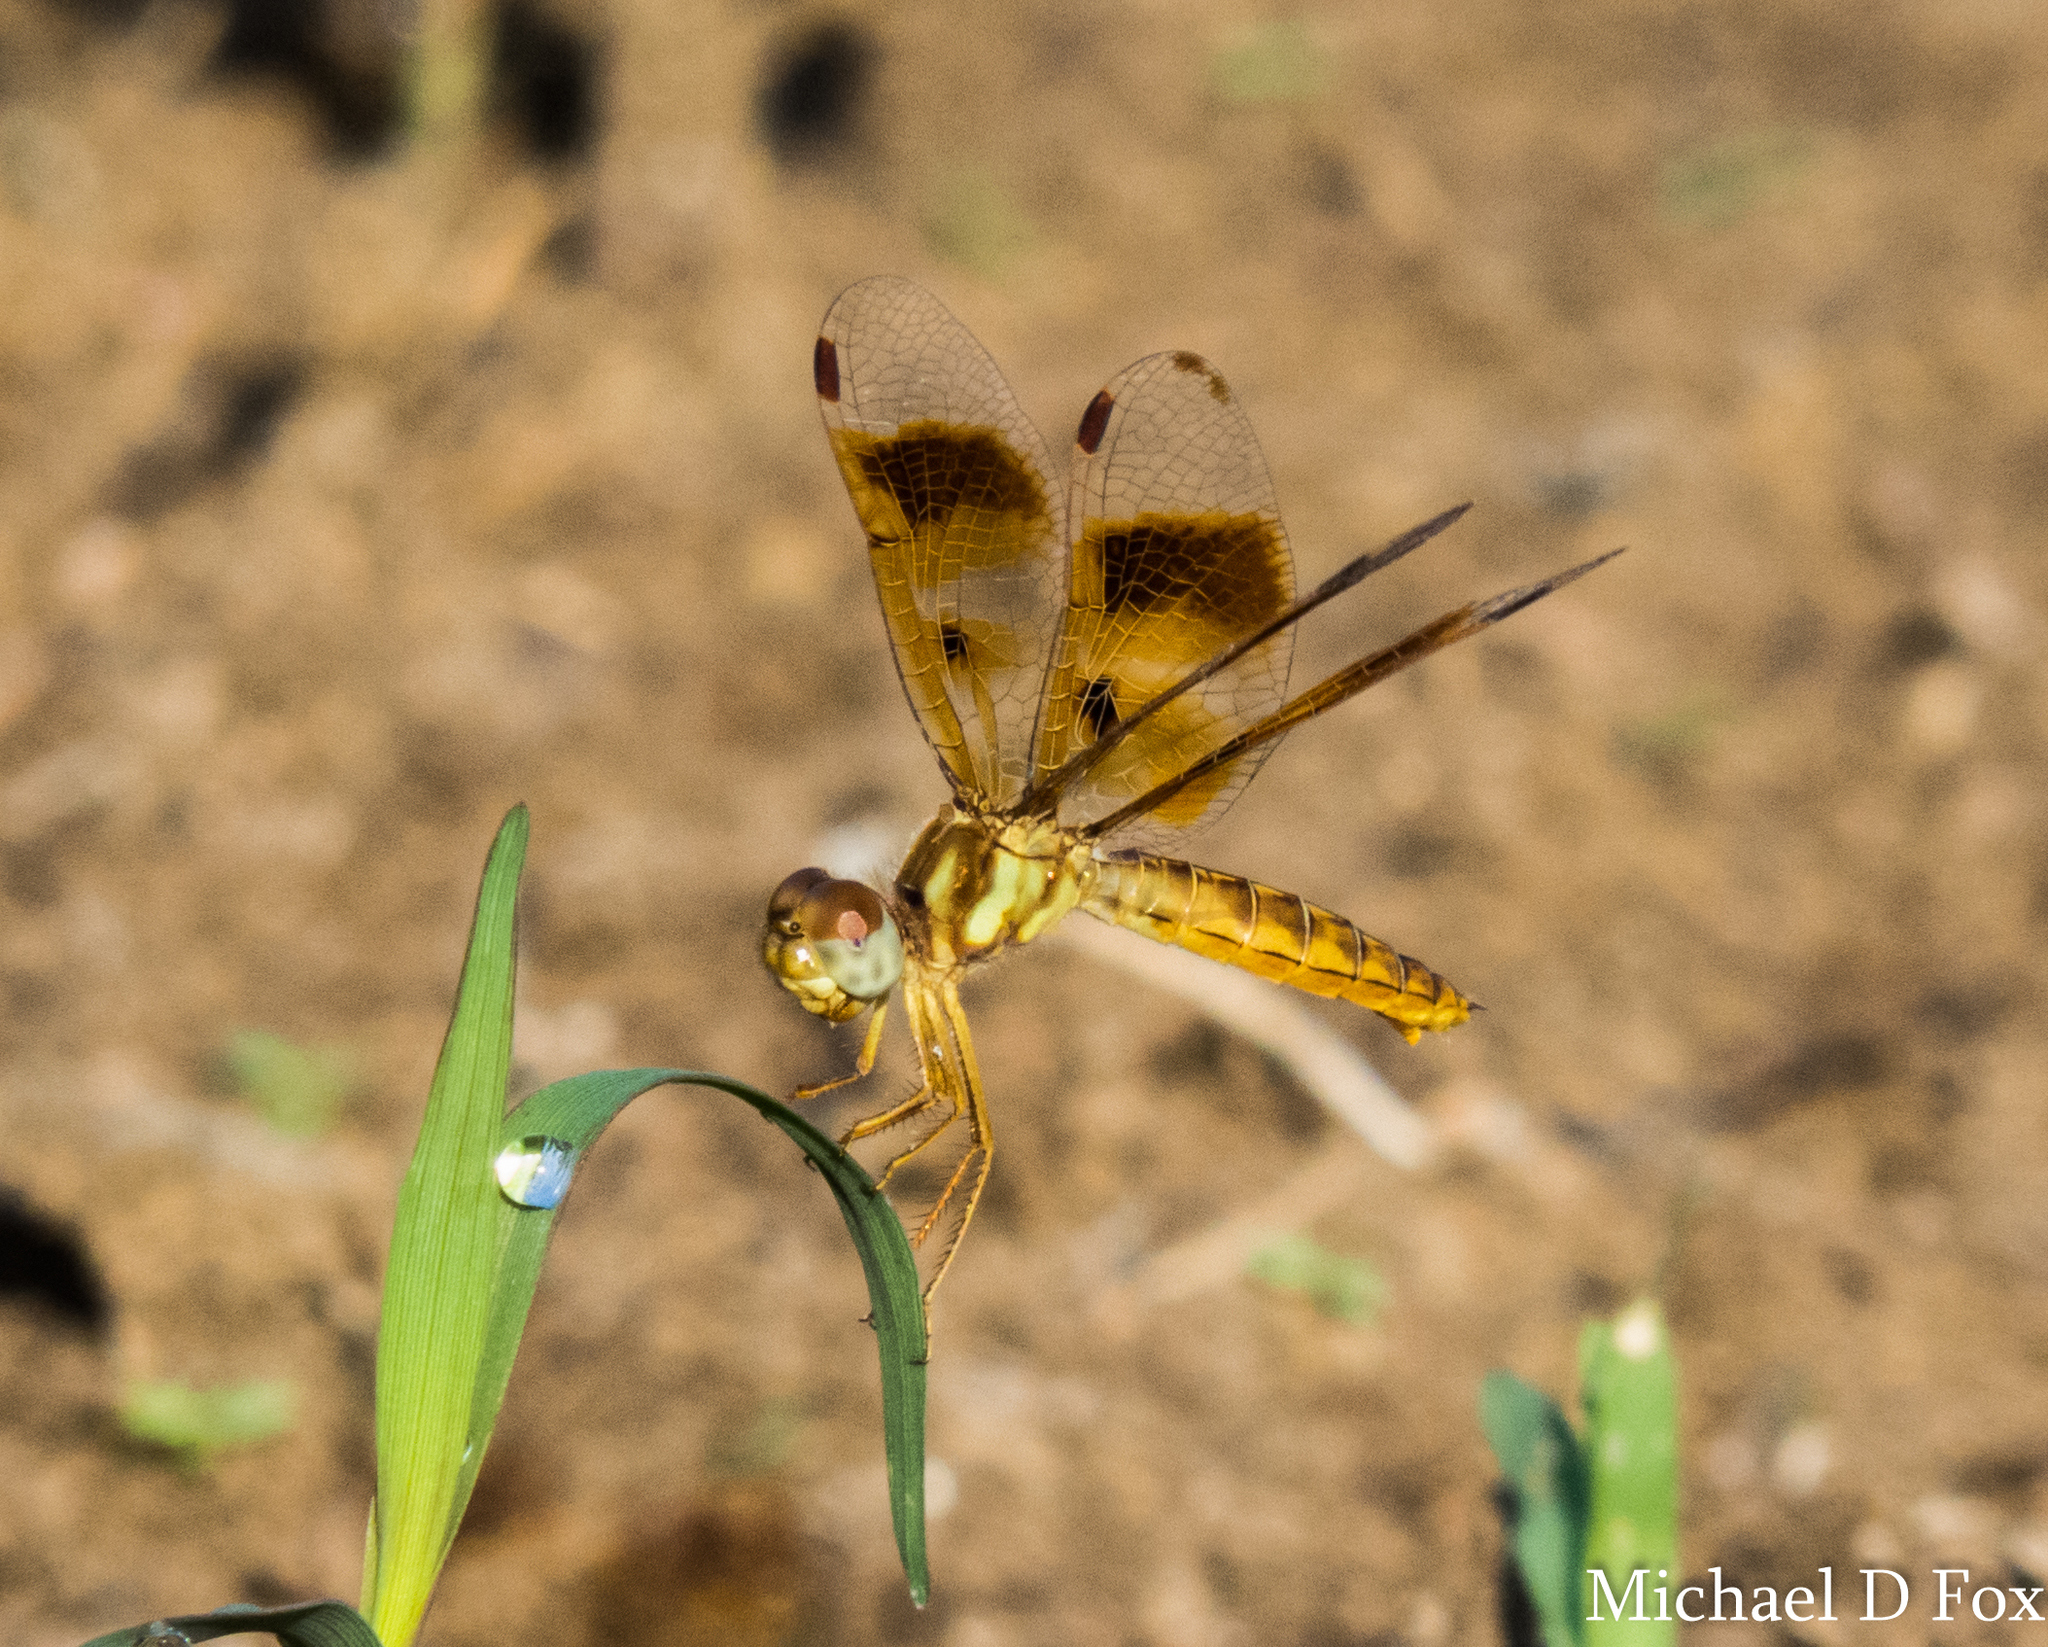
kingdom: Animalia
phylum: Arthropoda
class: Insecta
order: Odonata
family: Libellulidae
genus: Perithemis
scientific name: Perithemis tenera
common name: Eastern amberwing
